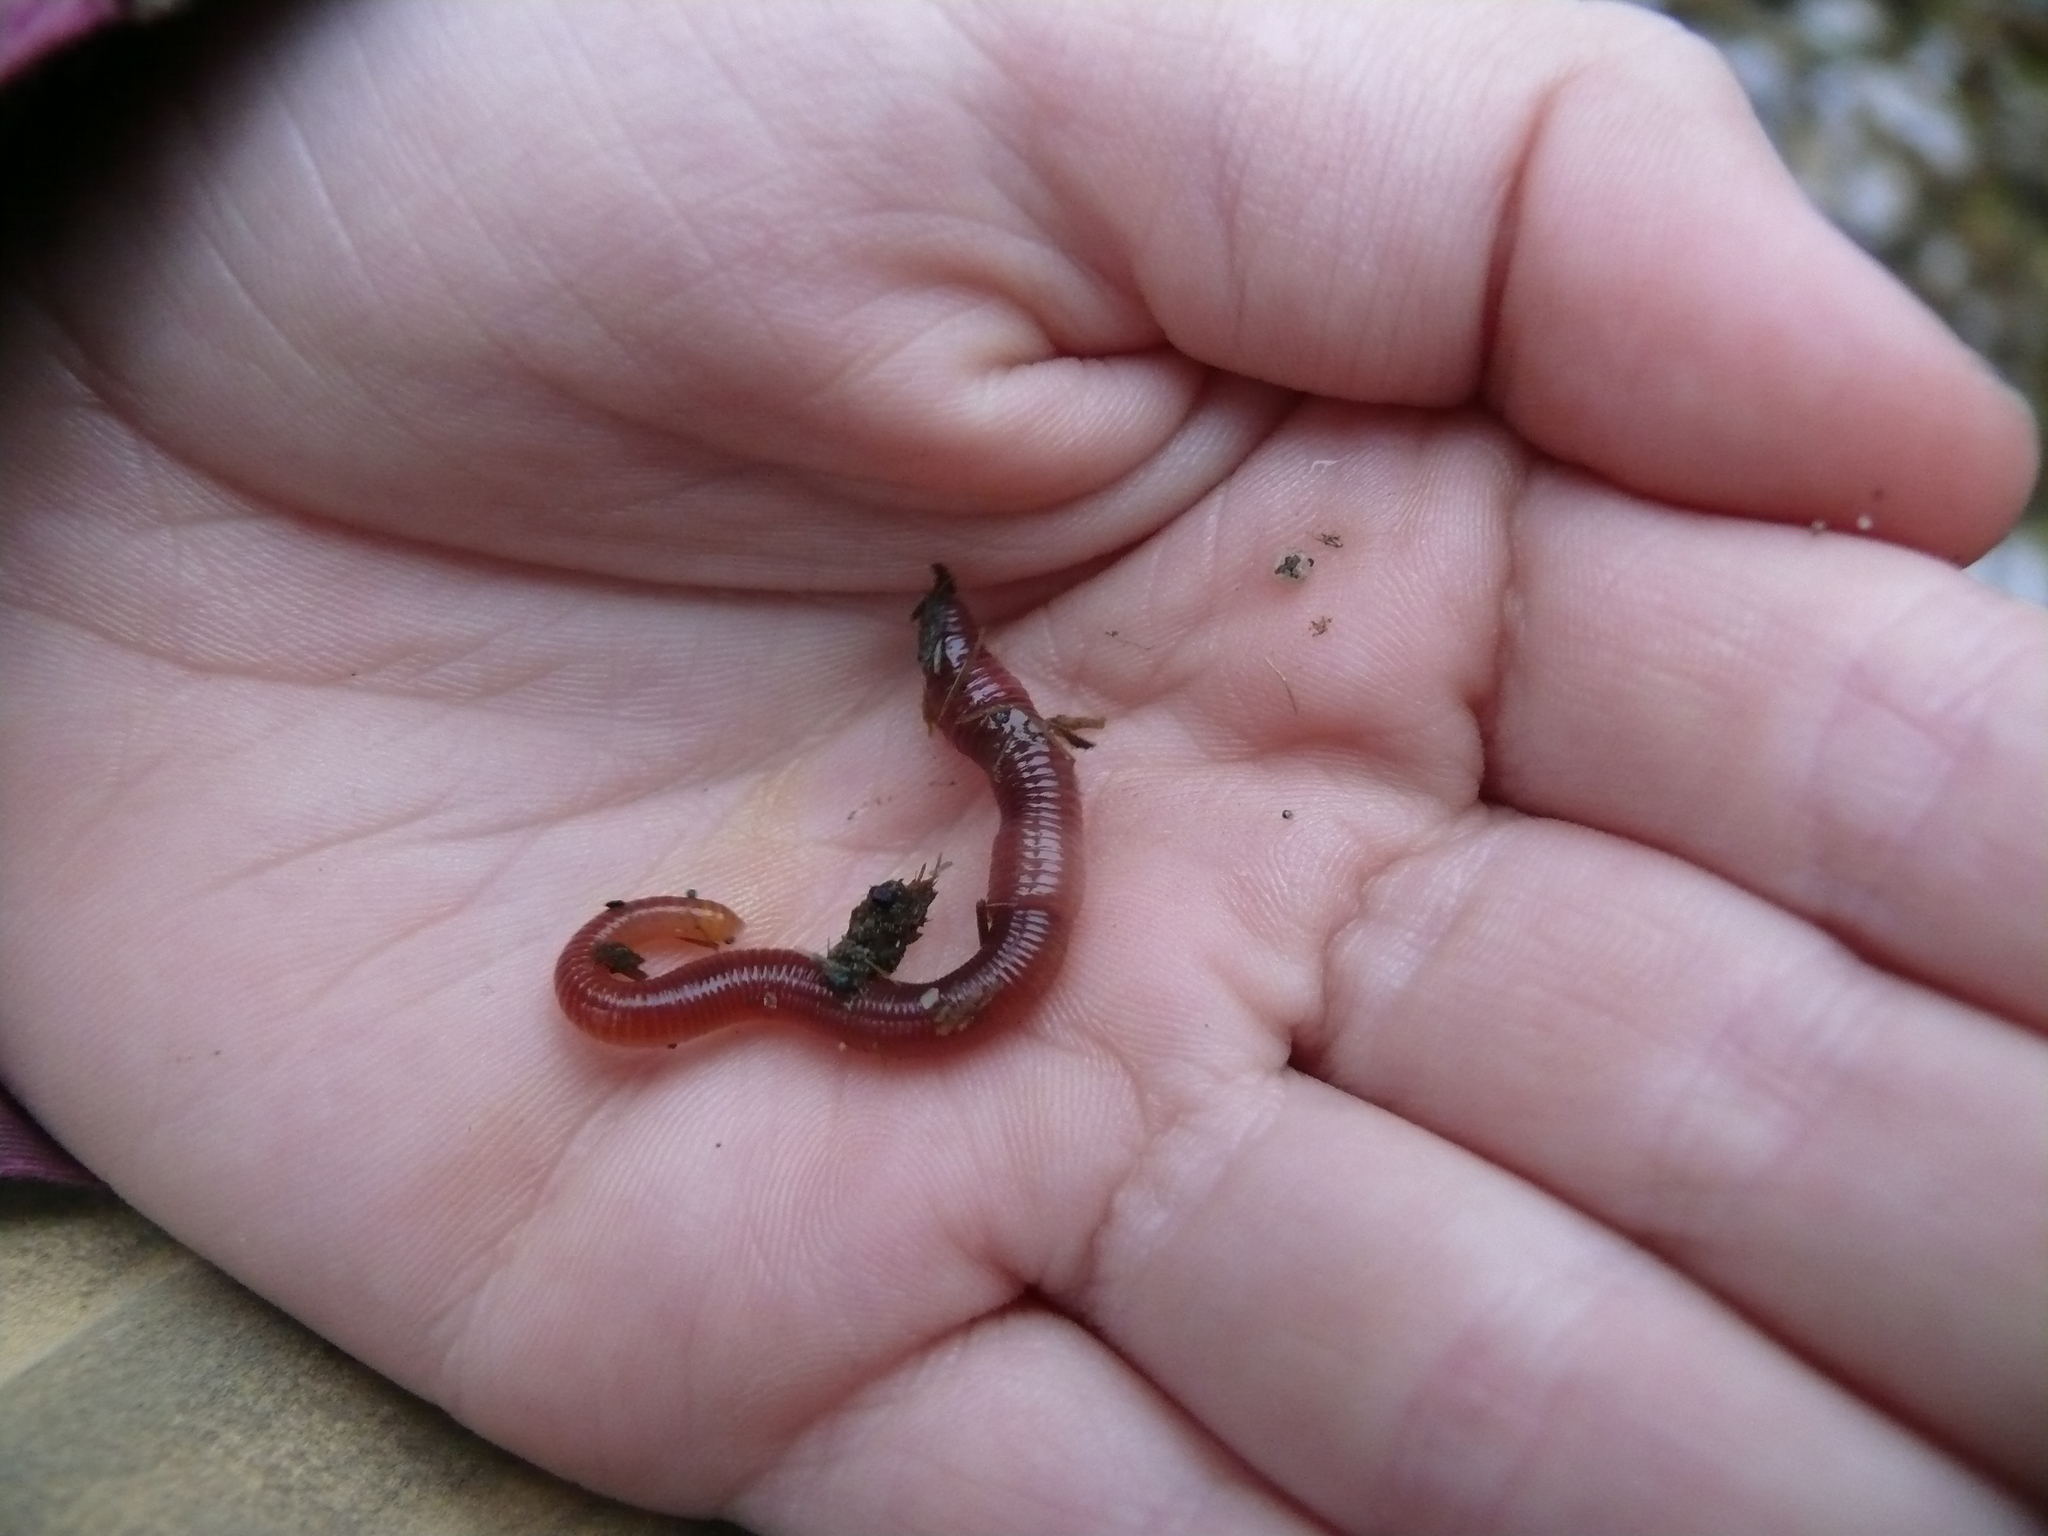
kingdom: Animalia
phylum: Annelida
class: Clitellata
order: Crassiclitellata
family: Lumbricidae
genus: Eisenia
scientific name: Eisenia andrei
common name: Manure worm
